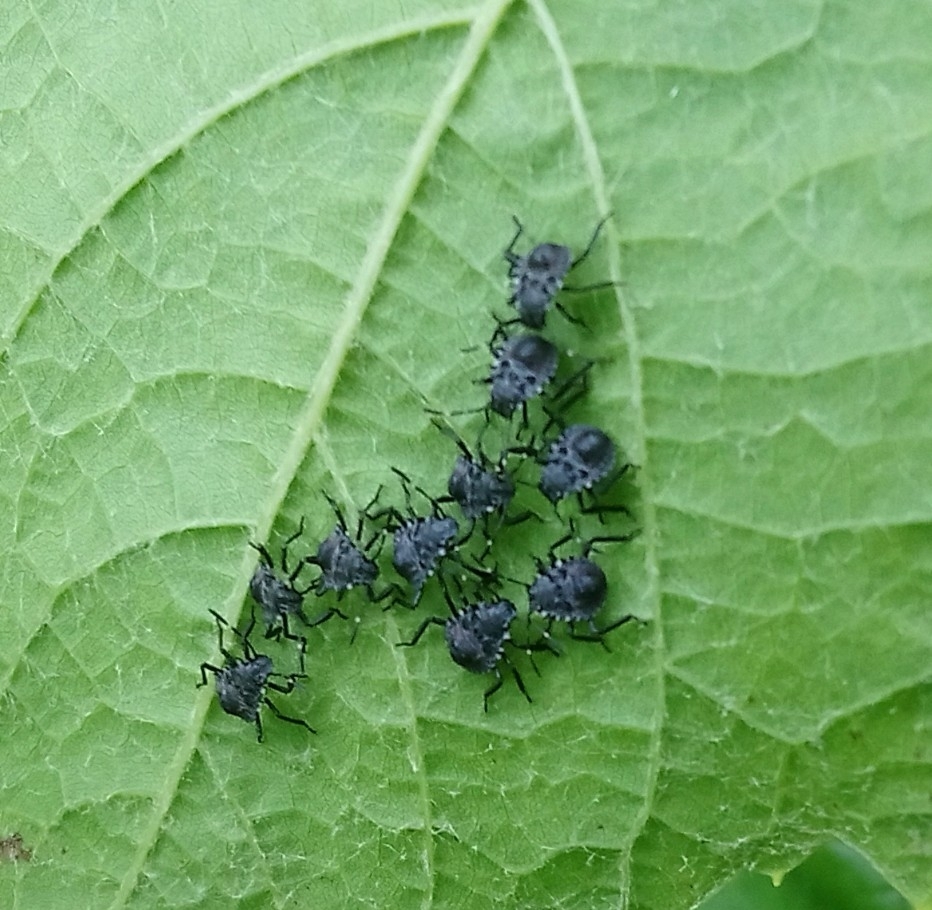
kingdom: Animalia
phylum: Arthropoda
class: Insecta
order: Hemiptera
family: Pentatomidae
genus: Halyomorpha
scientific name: Halyomorpha halys
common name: Brown marmorated stink bug
